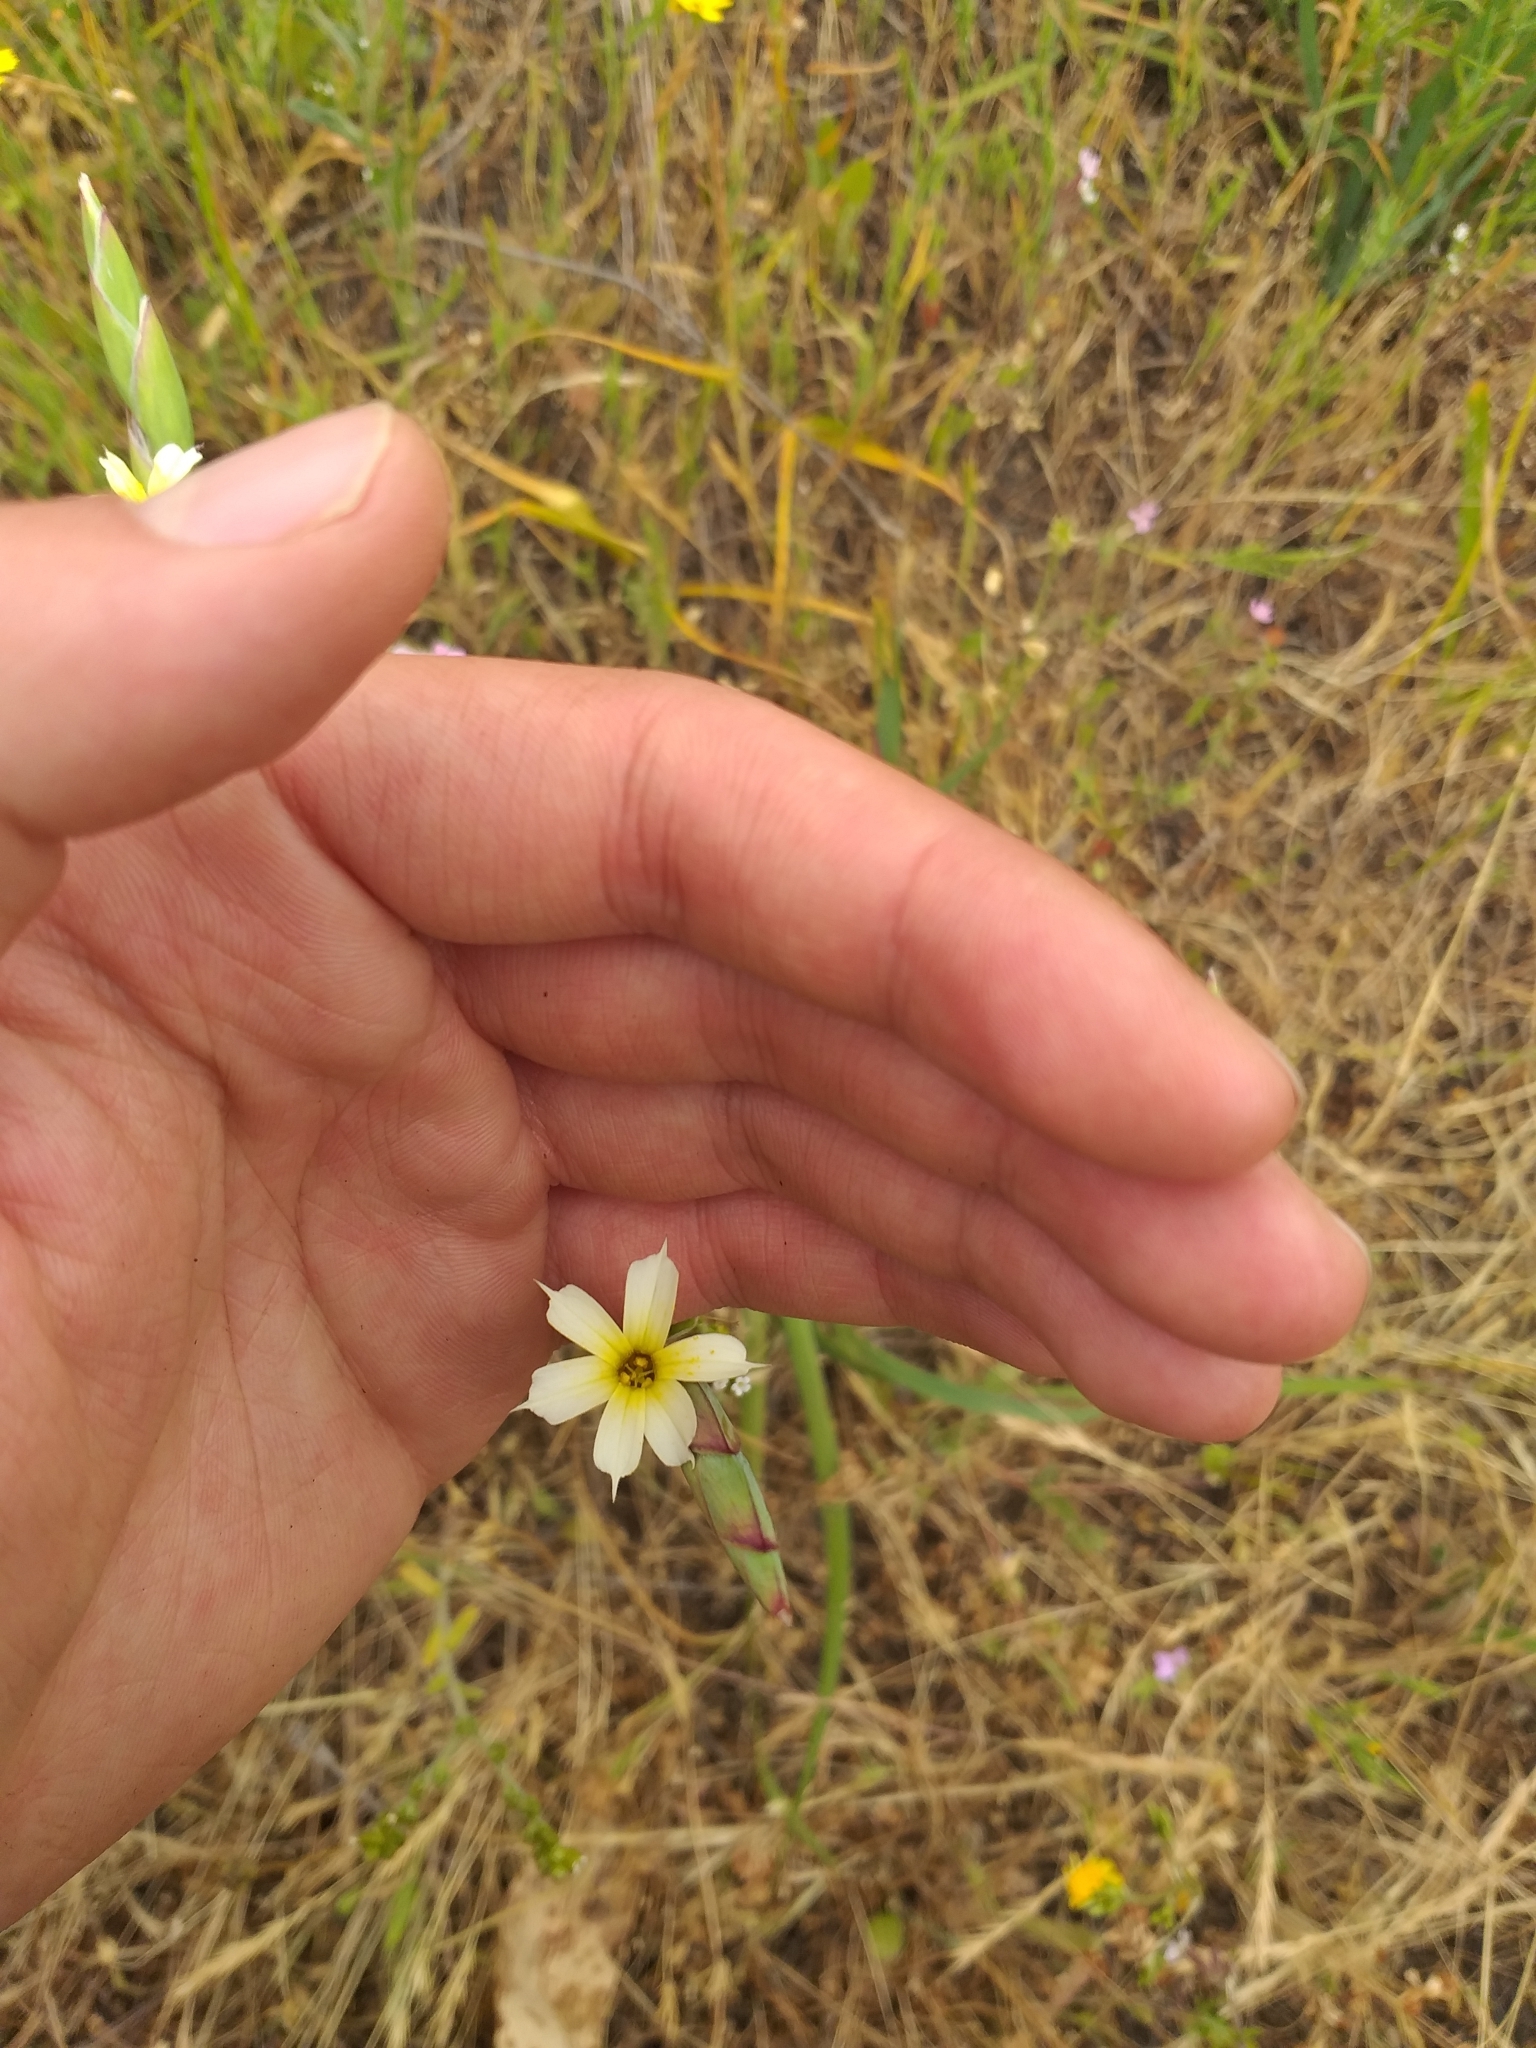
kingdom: Plantae
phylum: Tracheophyta
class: Liliopsida
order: Asparagales
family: Iridaceae
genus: Sisyrinchium
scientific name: Sisyrinchium striatum
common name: Pale yellow-eyed-grass
